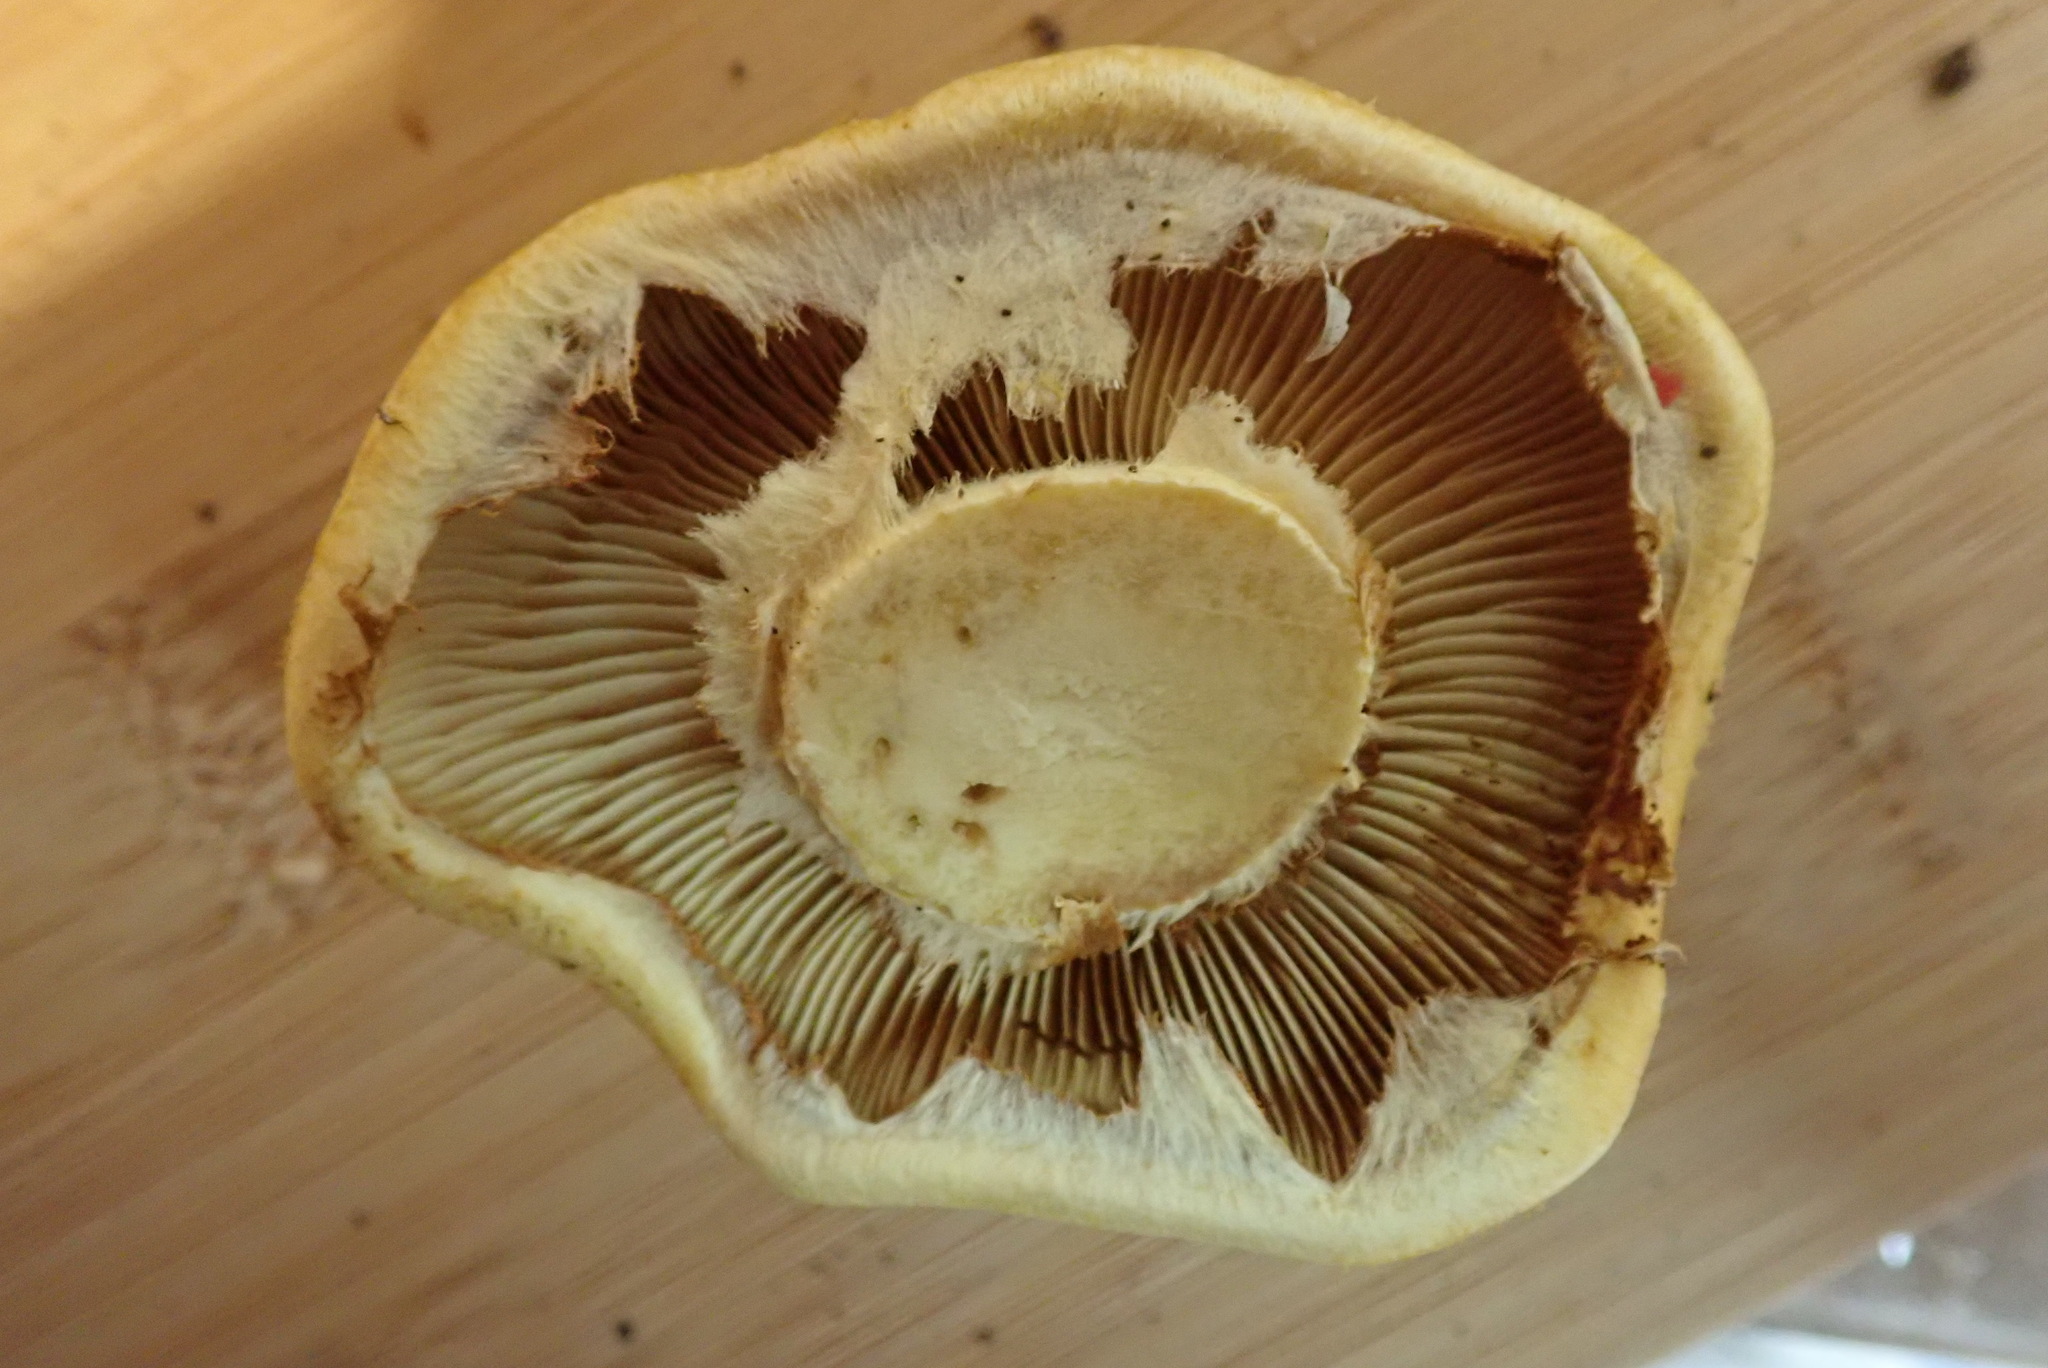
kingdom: Fungi
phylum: Basidiomycota
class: Agaricomycetes
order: Agaricales
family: Hymenogastraceae
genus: Gymnopilus
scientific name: Gymnopilus ventricosus
